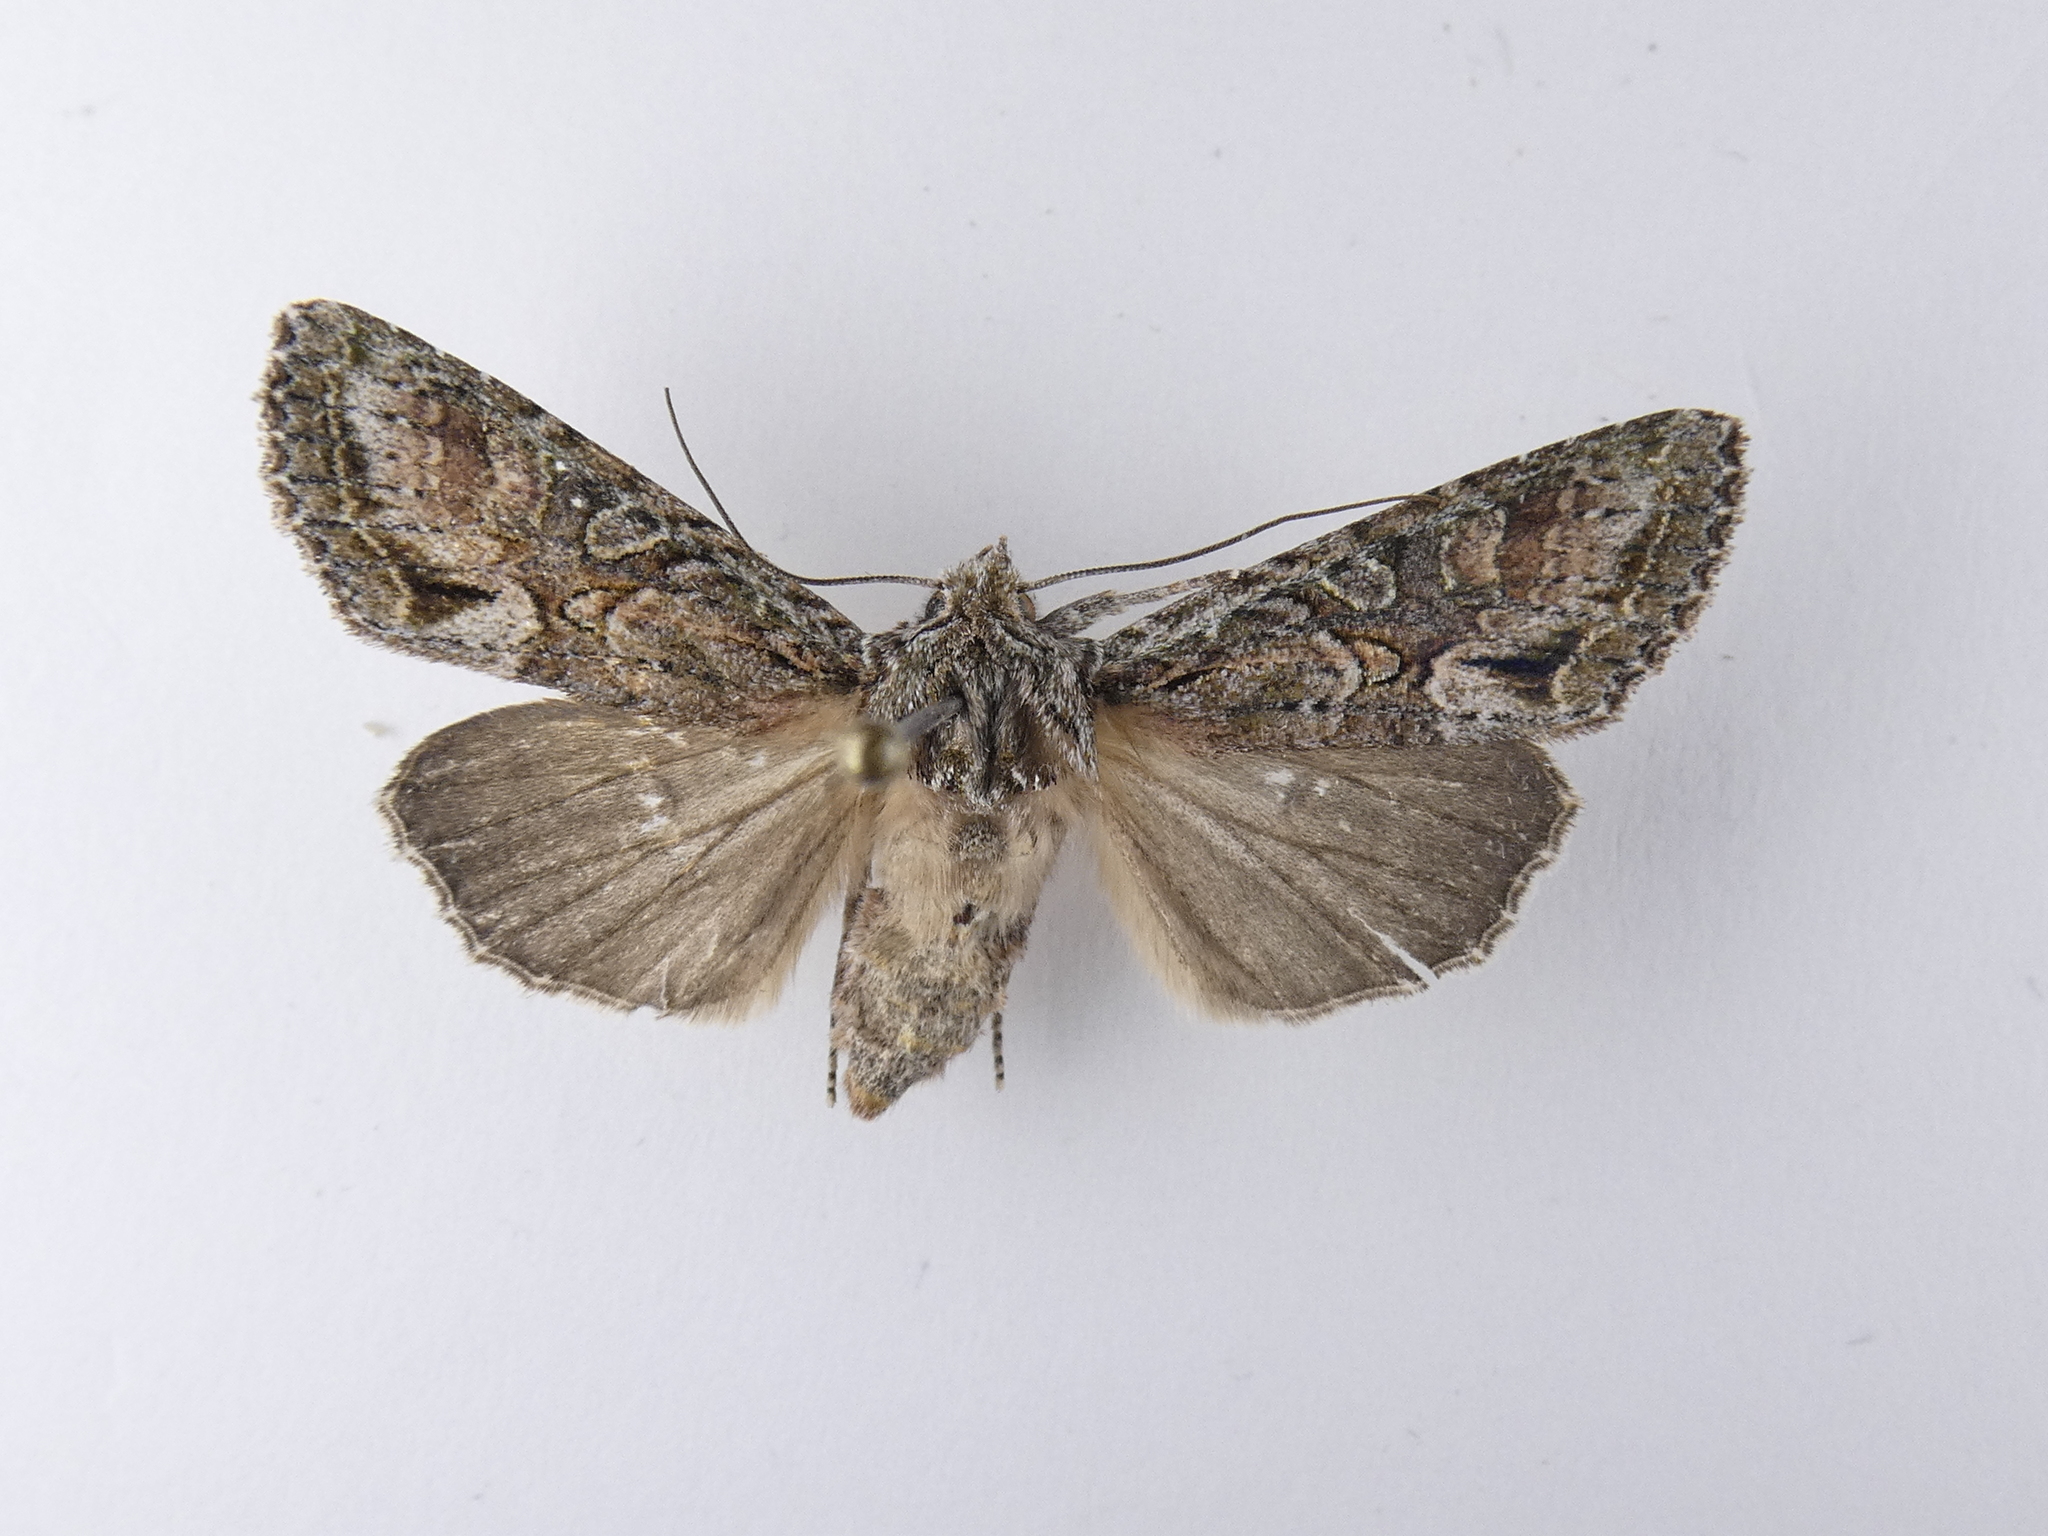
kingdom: Animalia
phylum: Arthropoda
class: Insecta
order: Lepidoptera
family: Noctuidae
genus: Ichneutica
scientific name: Ichneutica mutans
